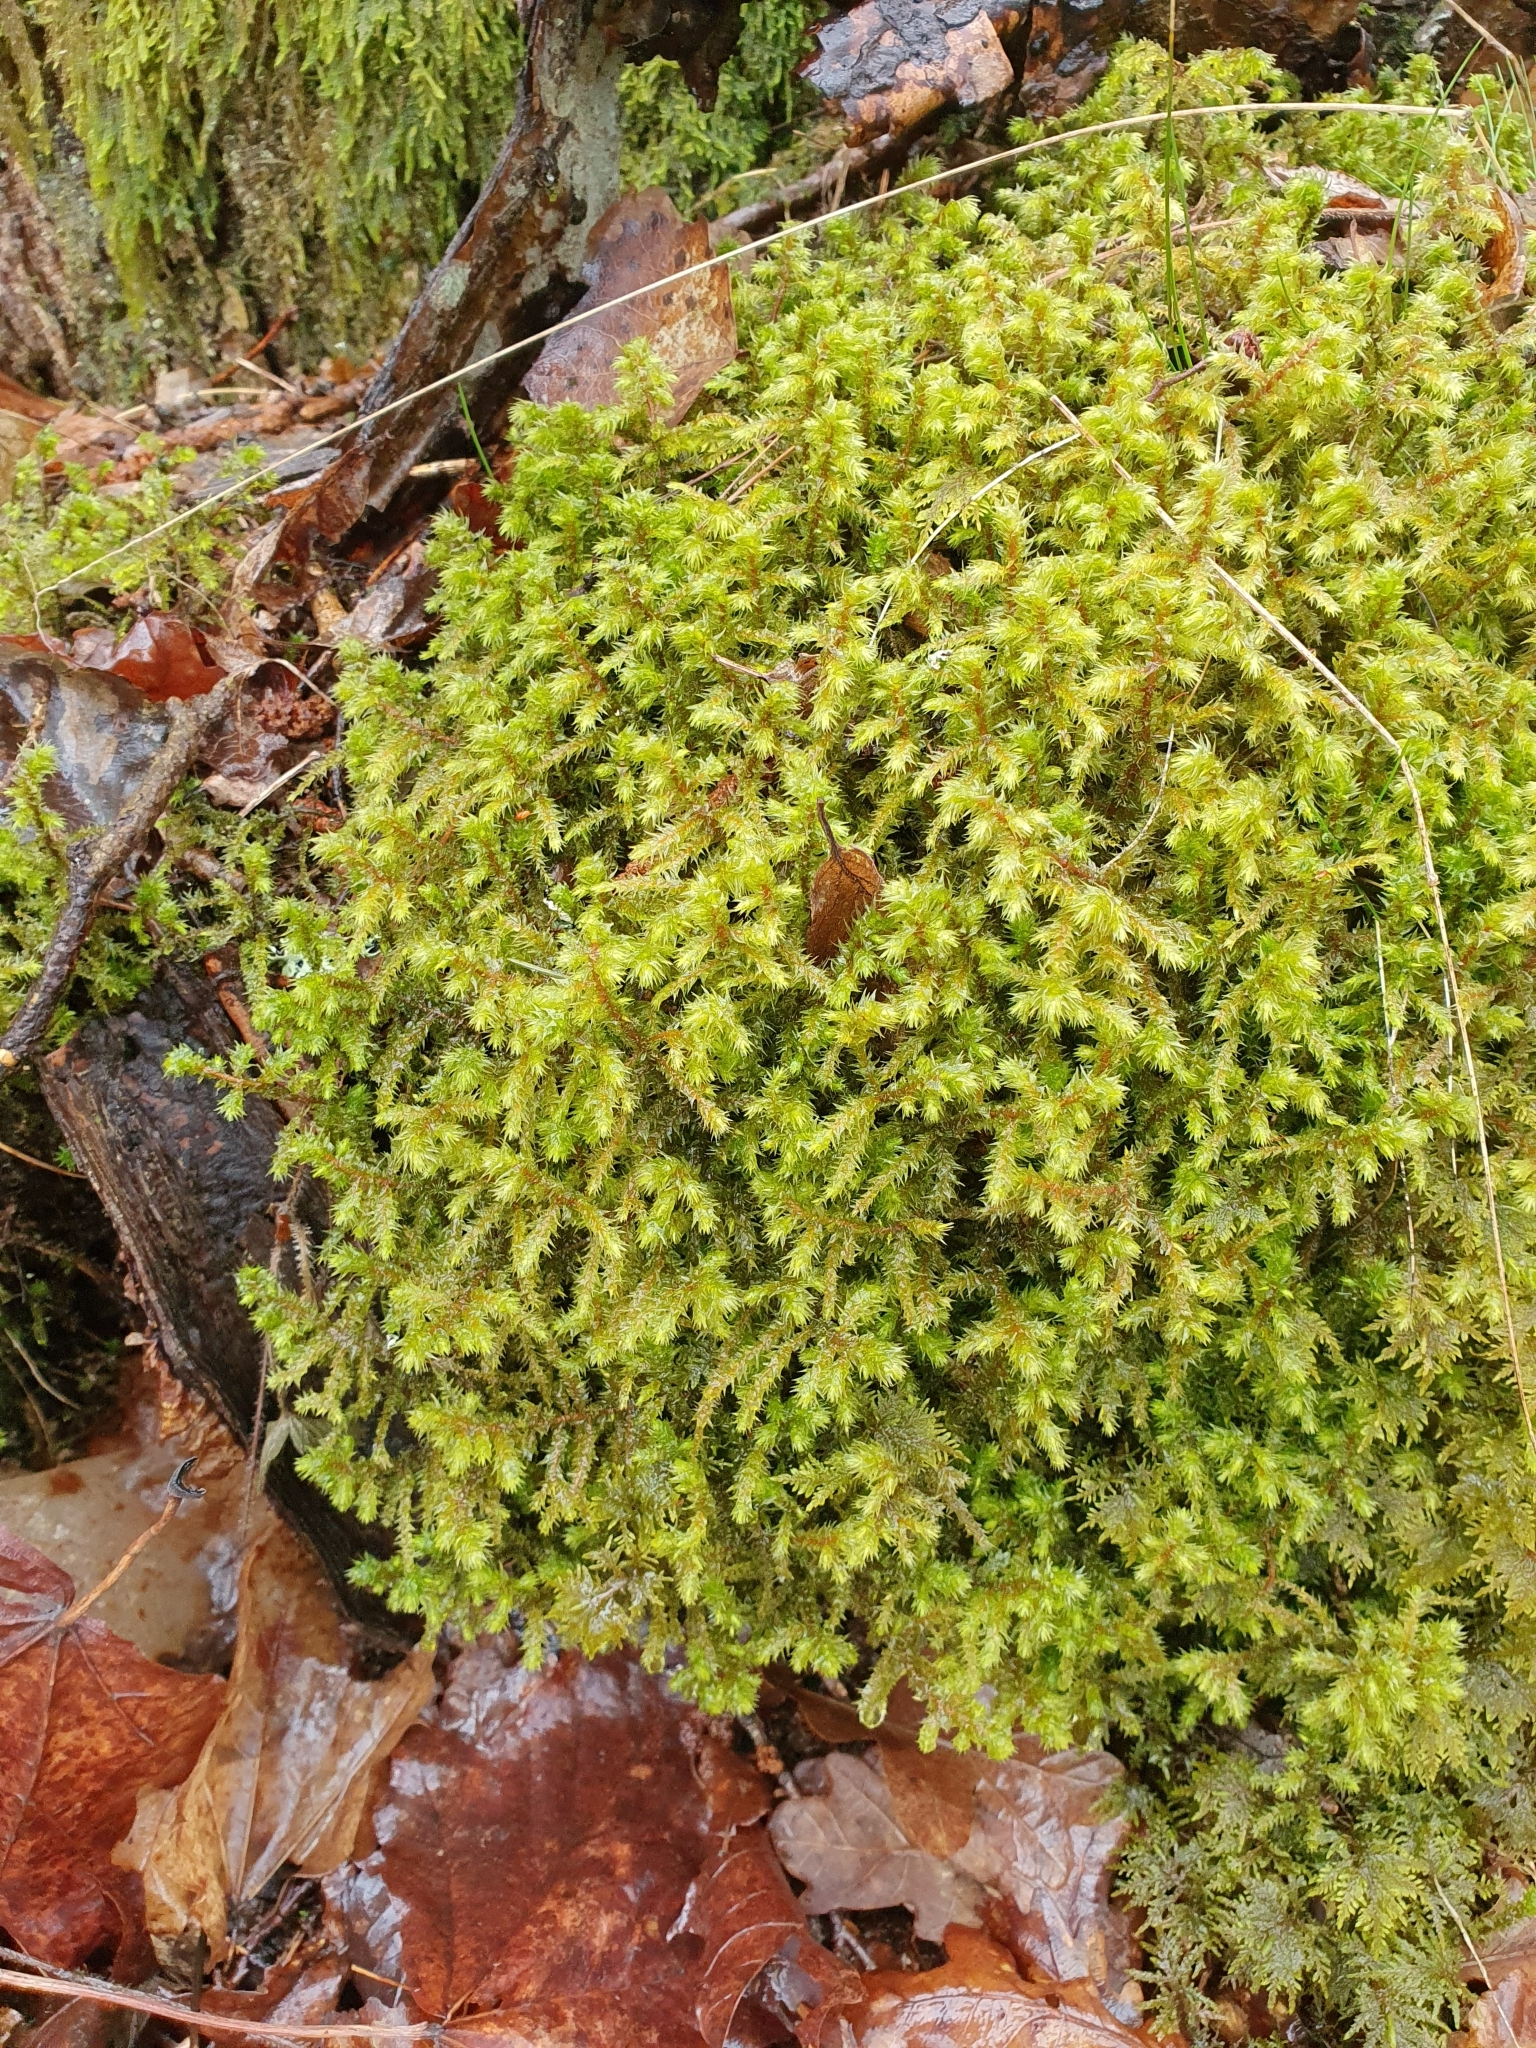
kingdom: Plantae
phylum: Bryophyta
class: Bryopsida
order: Hypnales
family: Hylocomiaceae
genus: Hylocomiadelphus
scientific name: Hylocomiadelphus triquetrus
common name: Rough goose neck moss
